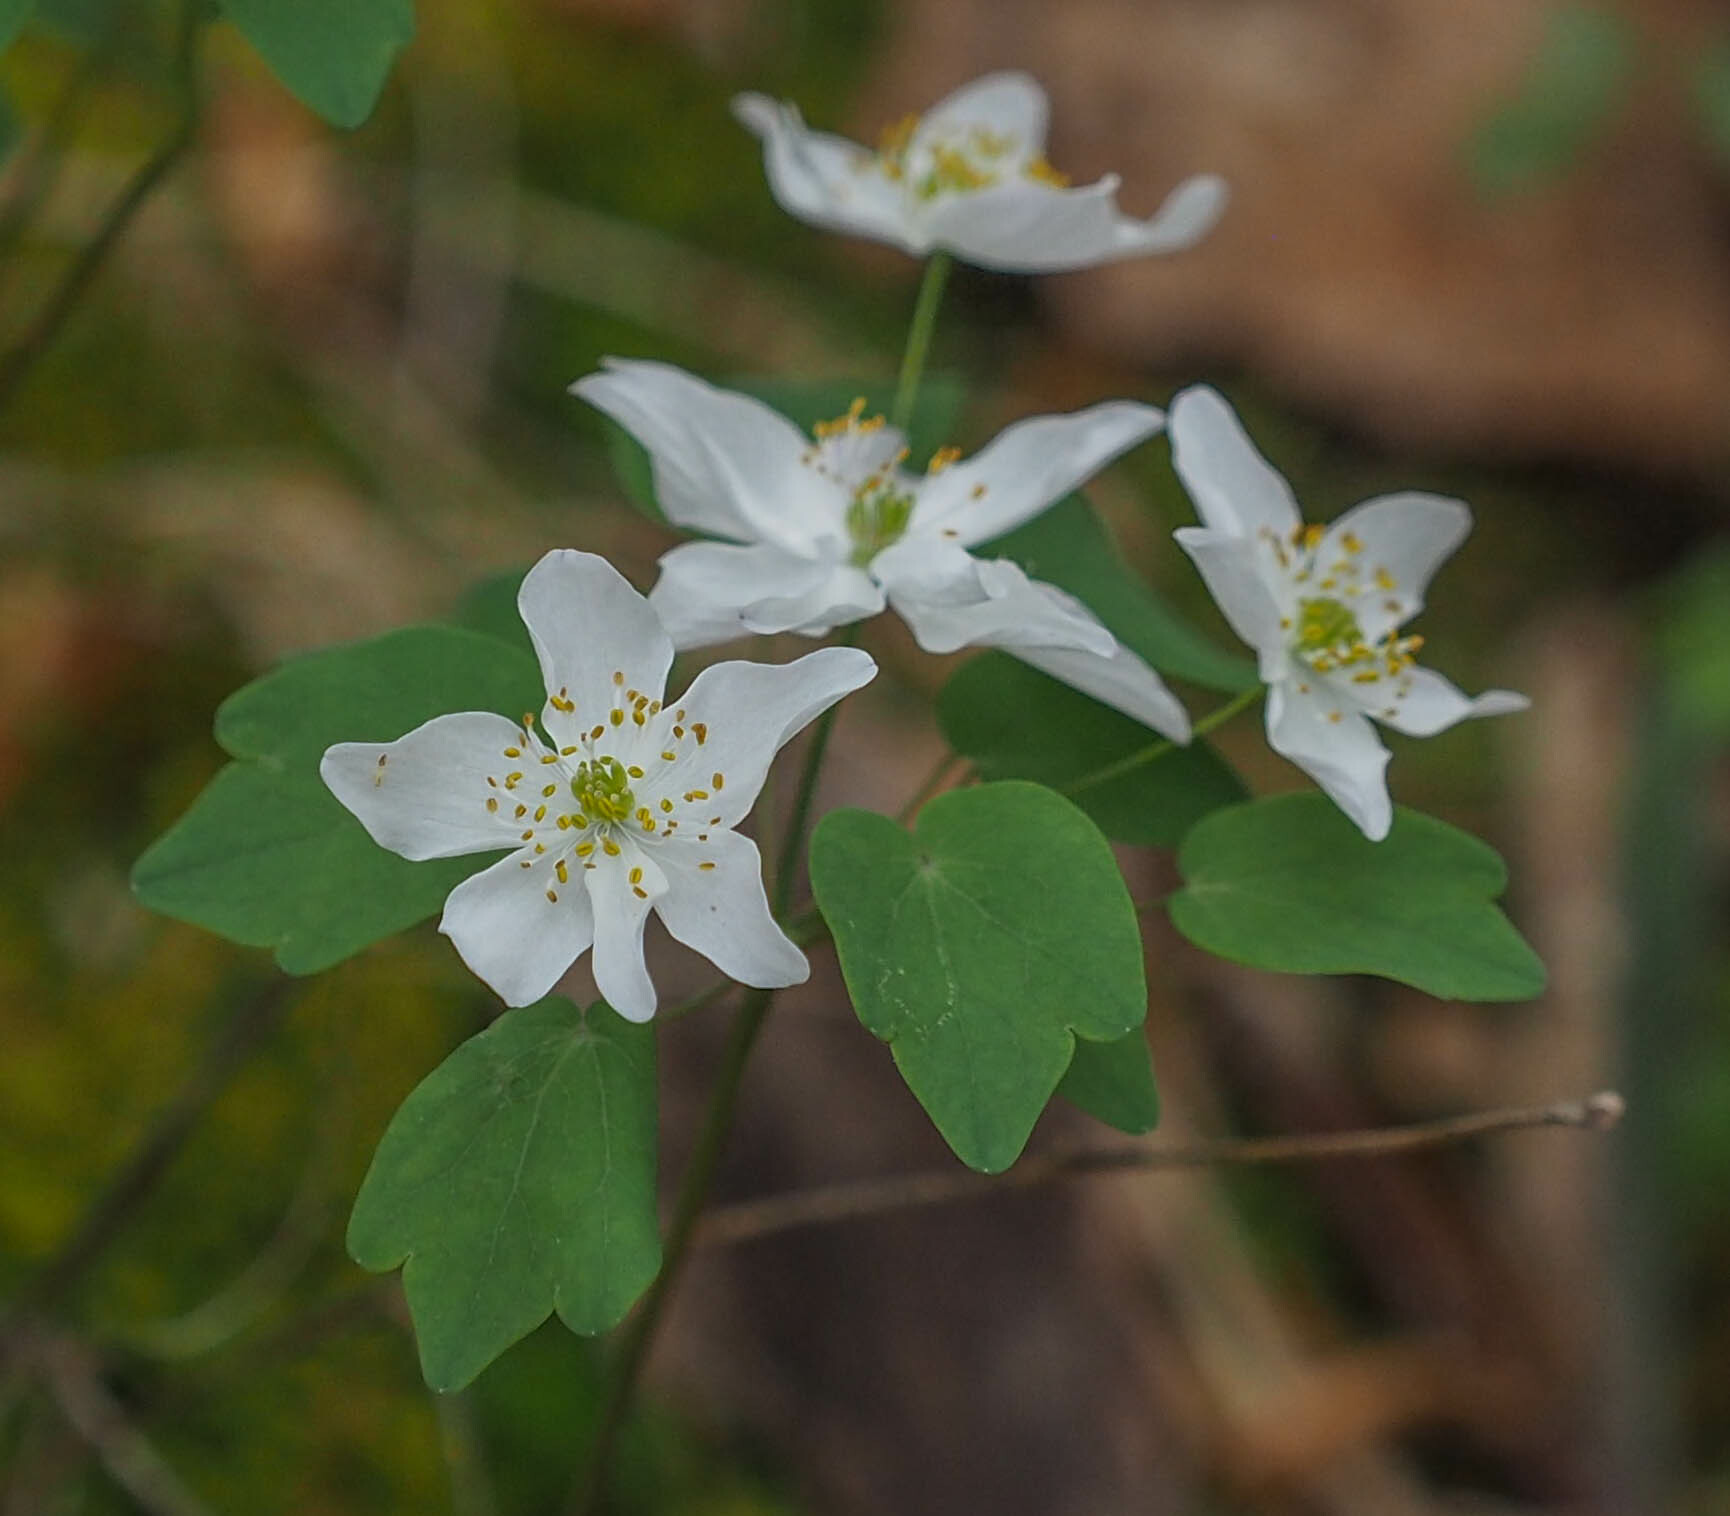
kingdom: Plantae
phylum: Tracheophyta
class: Magnoliopsida
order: Ranunculales
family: Ranunculaceae
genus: Thalictrum
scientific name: Thalictrum thalictroides
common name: Rue-anemone
